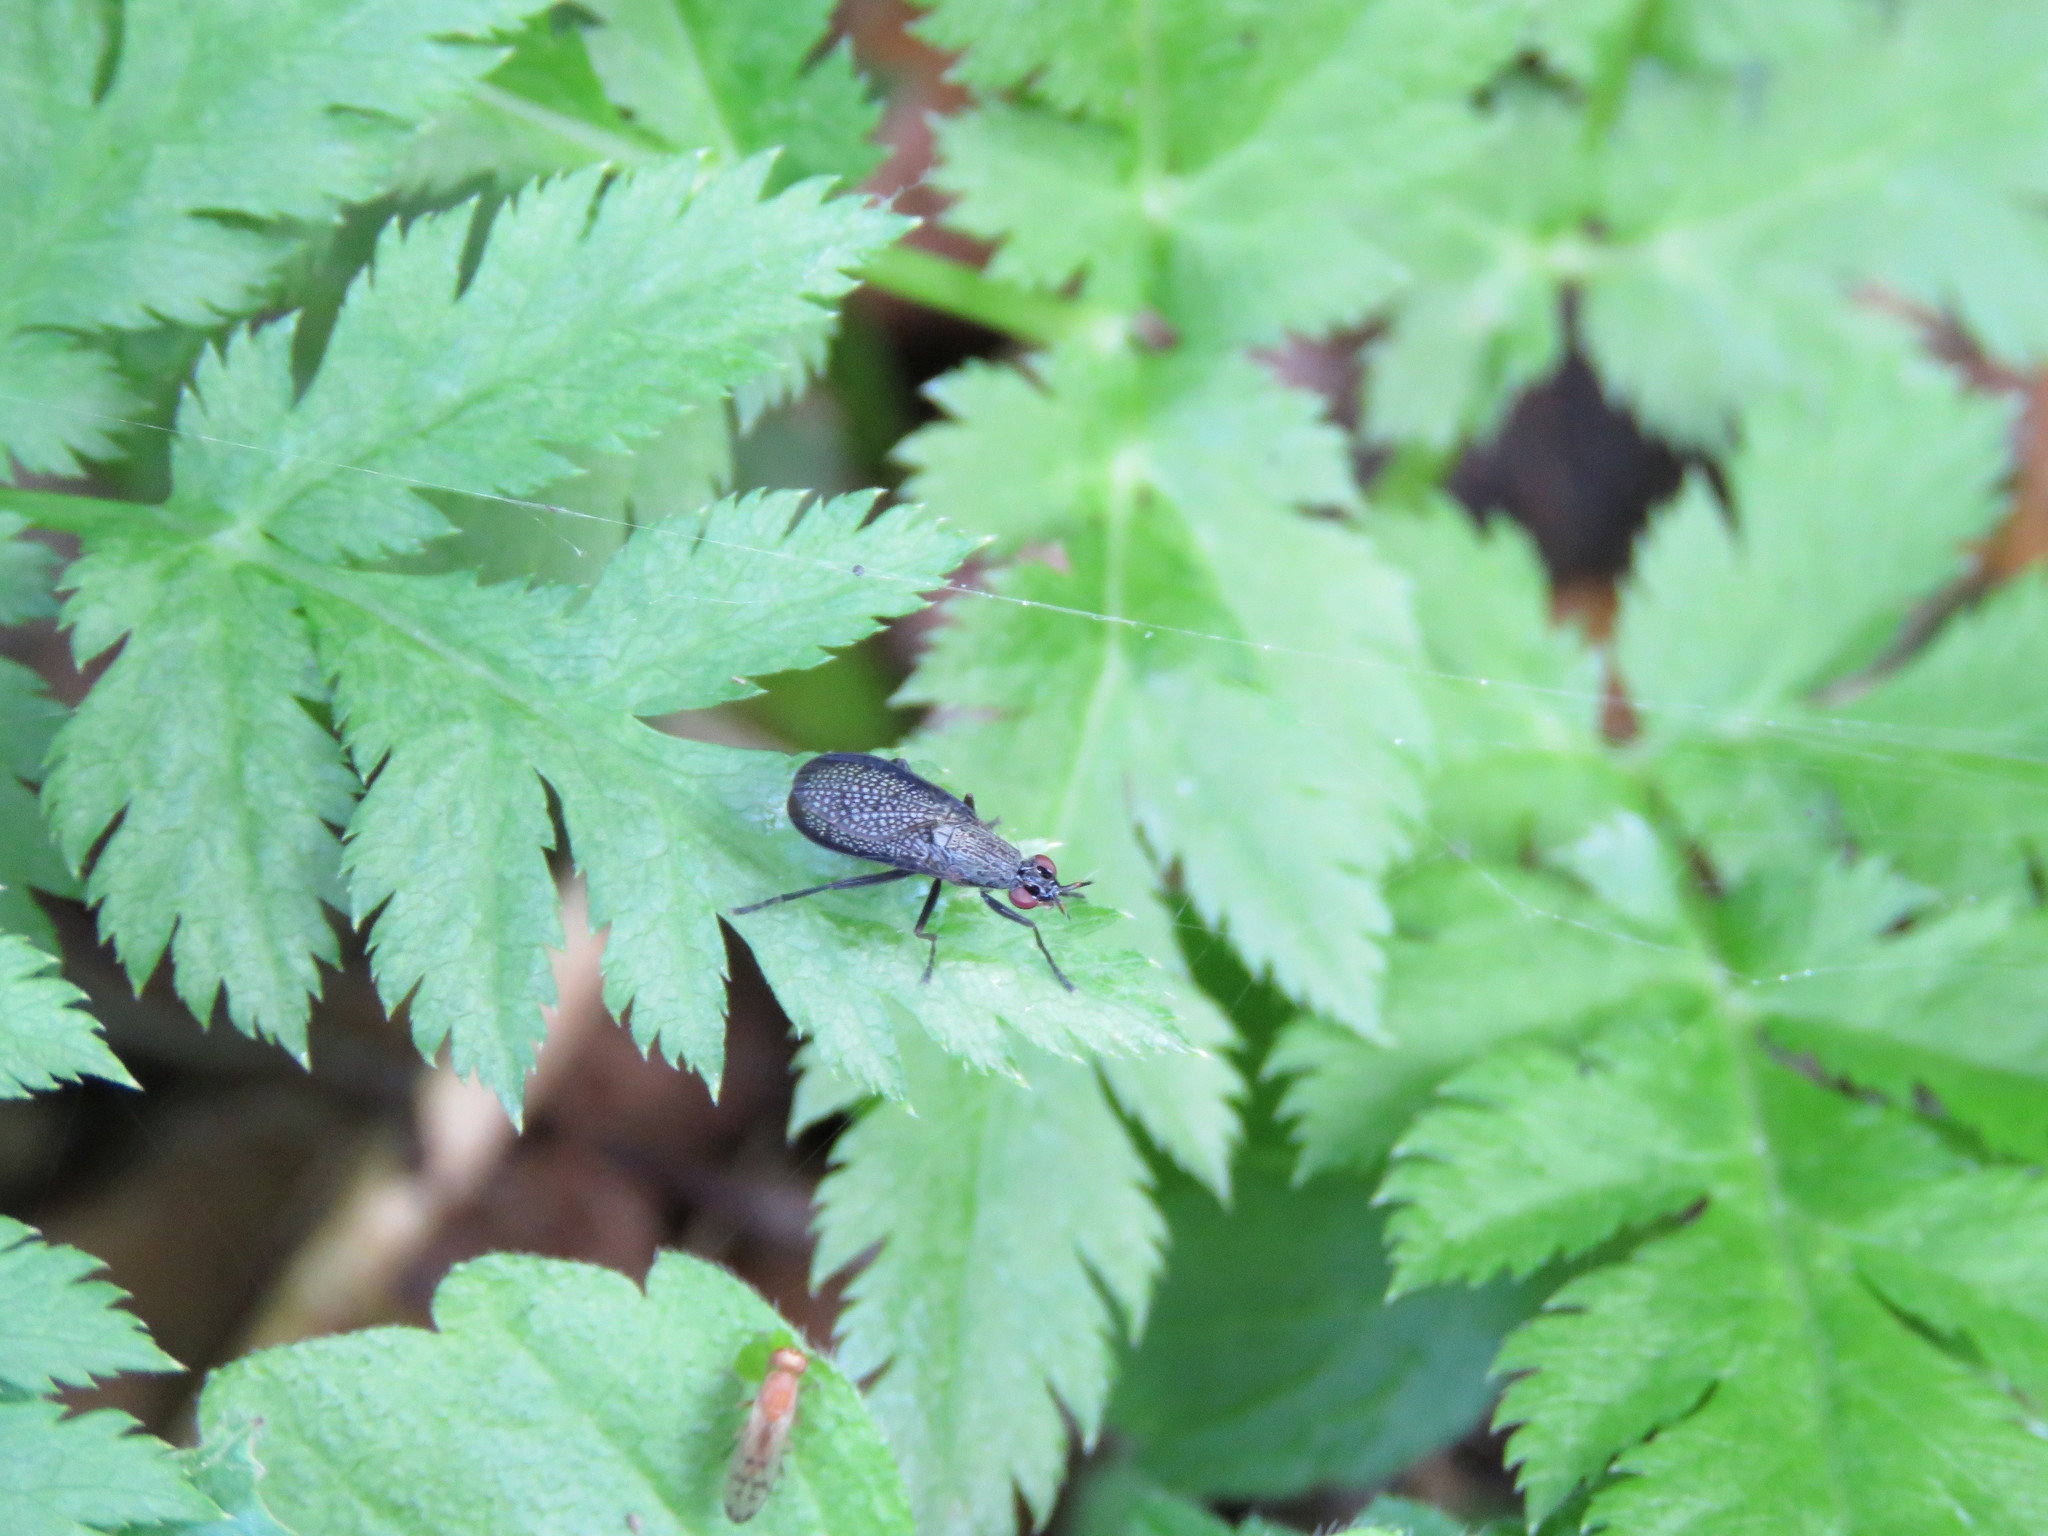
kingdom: Animalia
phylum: Arthropoda
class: Insecta
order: Diptera
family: Sciomyzidae
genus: Coremacera
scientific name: Coremacera marginata
